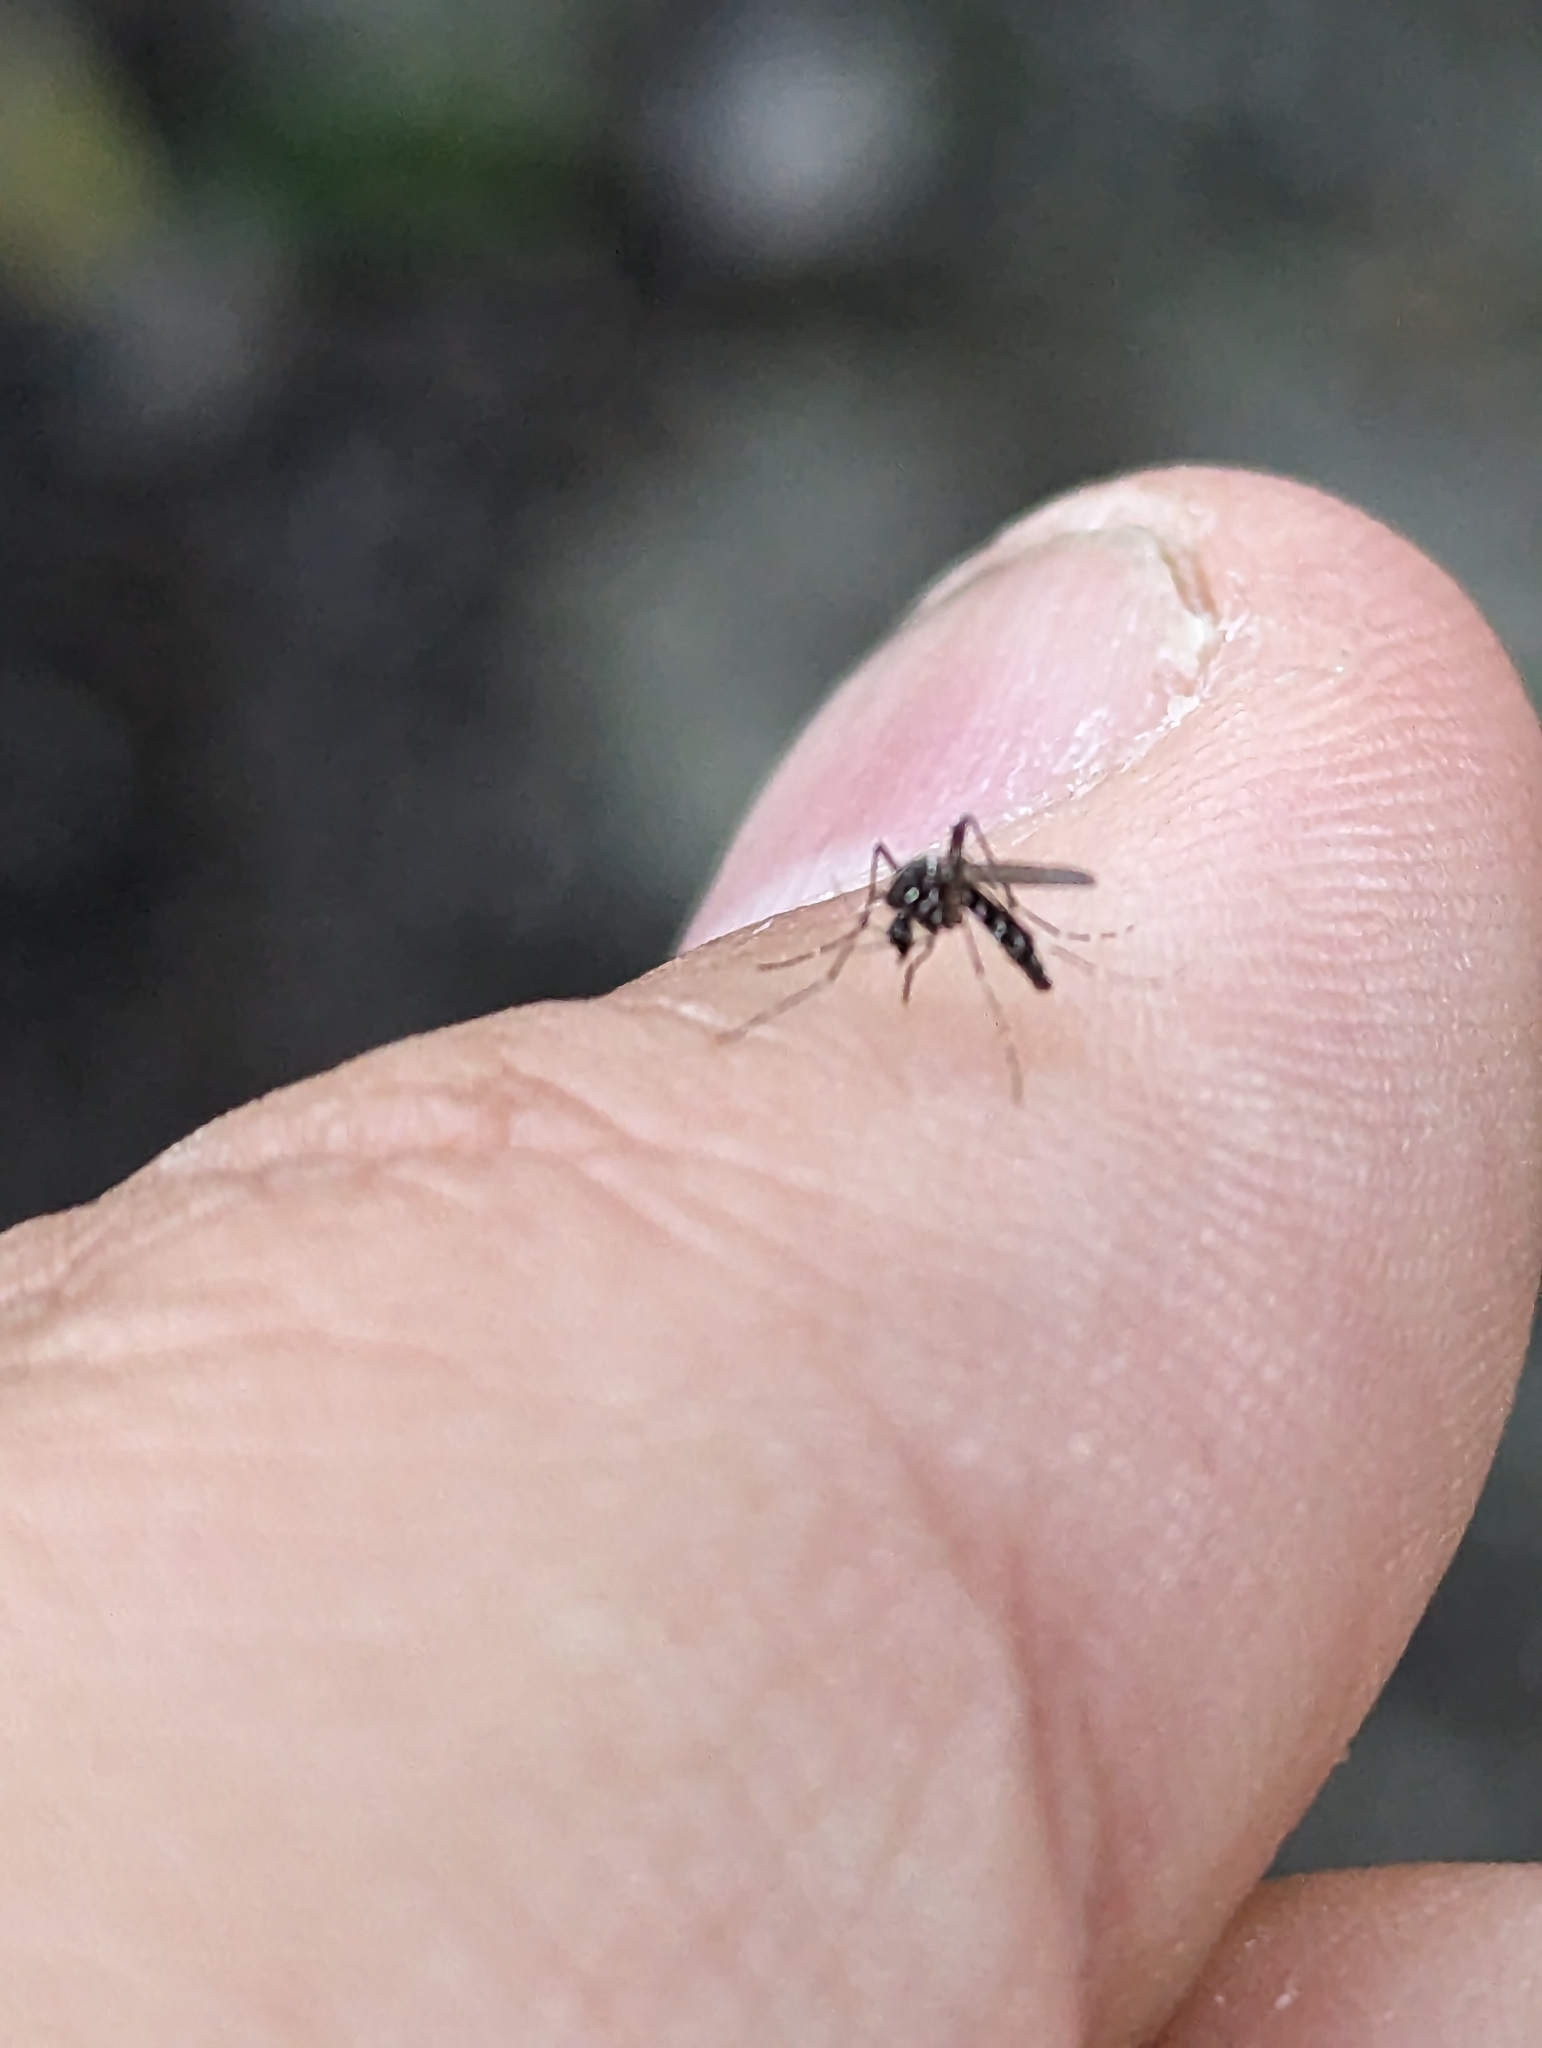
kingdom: Animalia
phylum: Arthropoda
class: Insecta
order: Diptera
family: Culicidae
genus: Aedes
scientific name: Aedes albopictus
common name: Tiger mosquito
